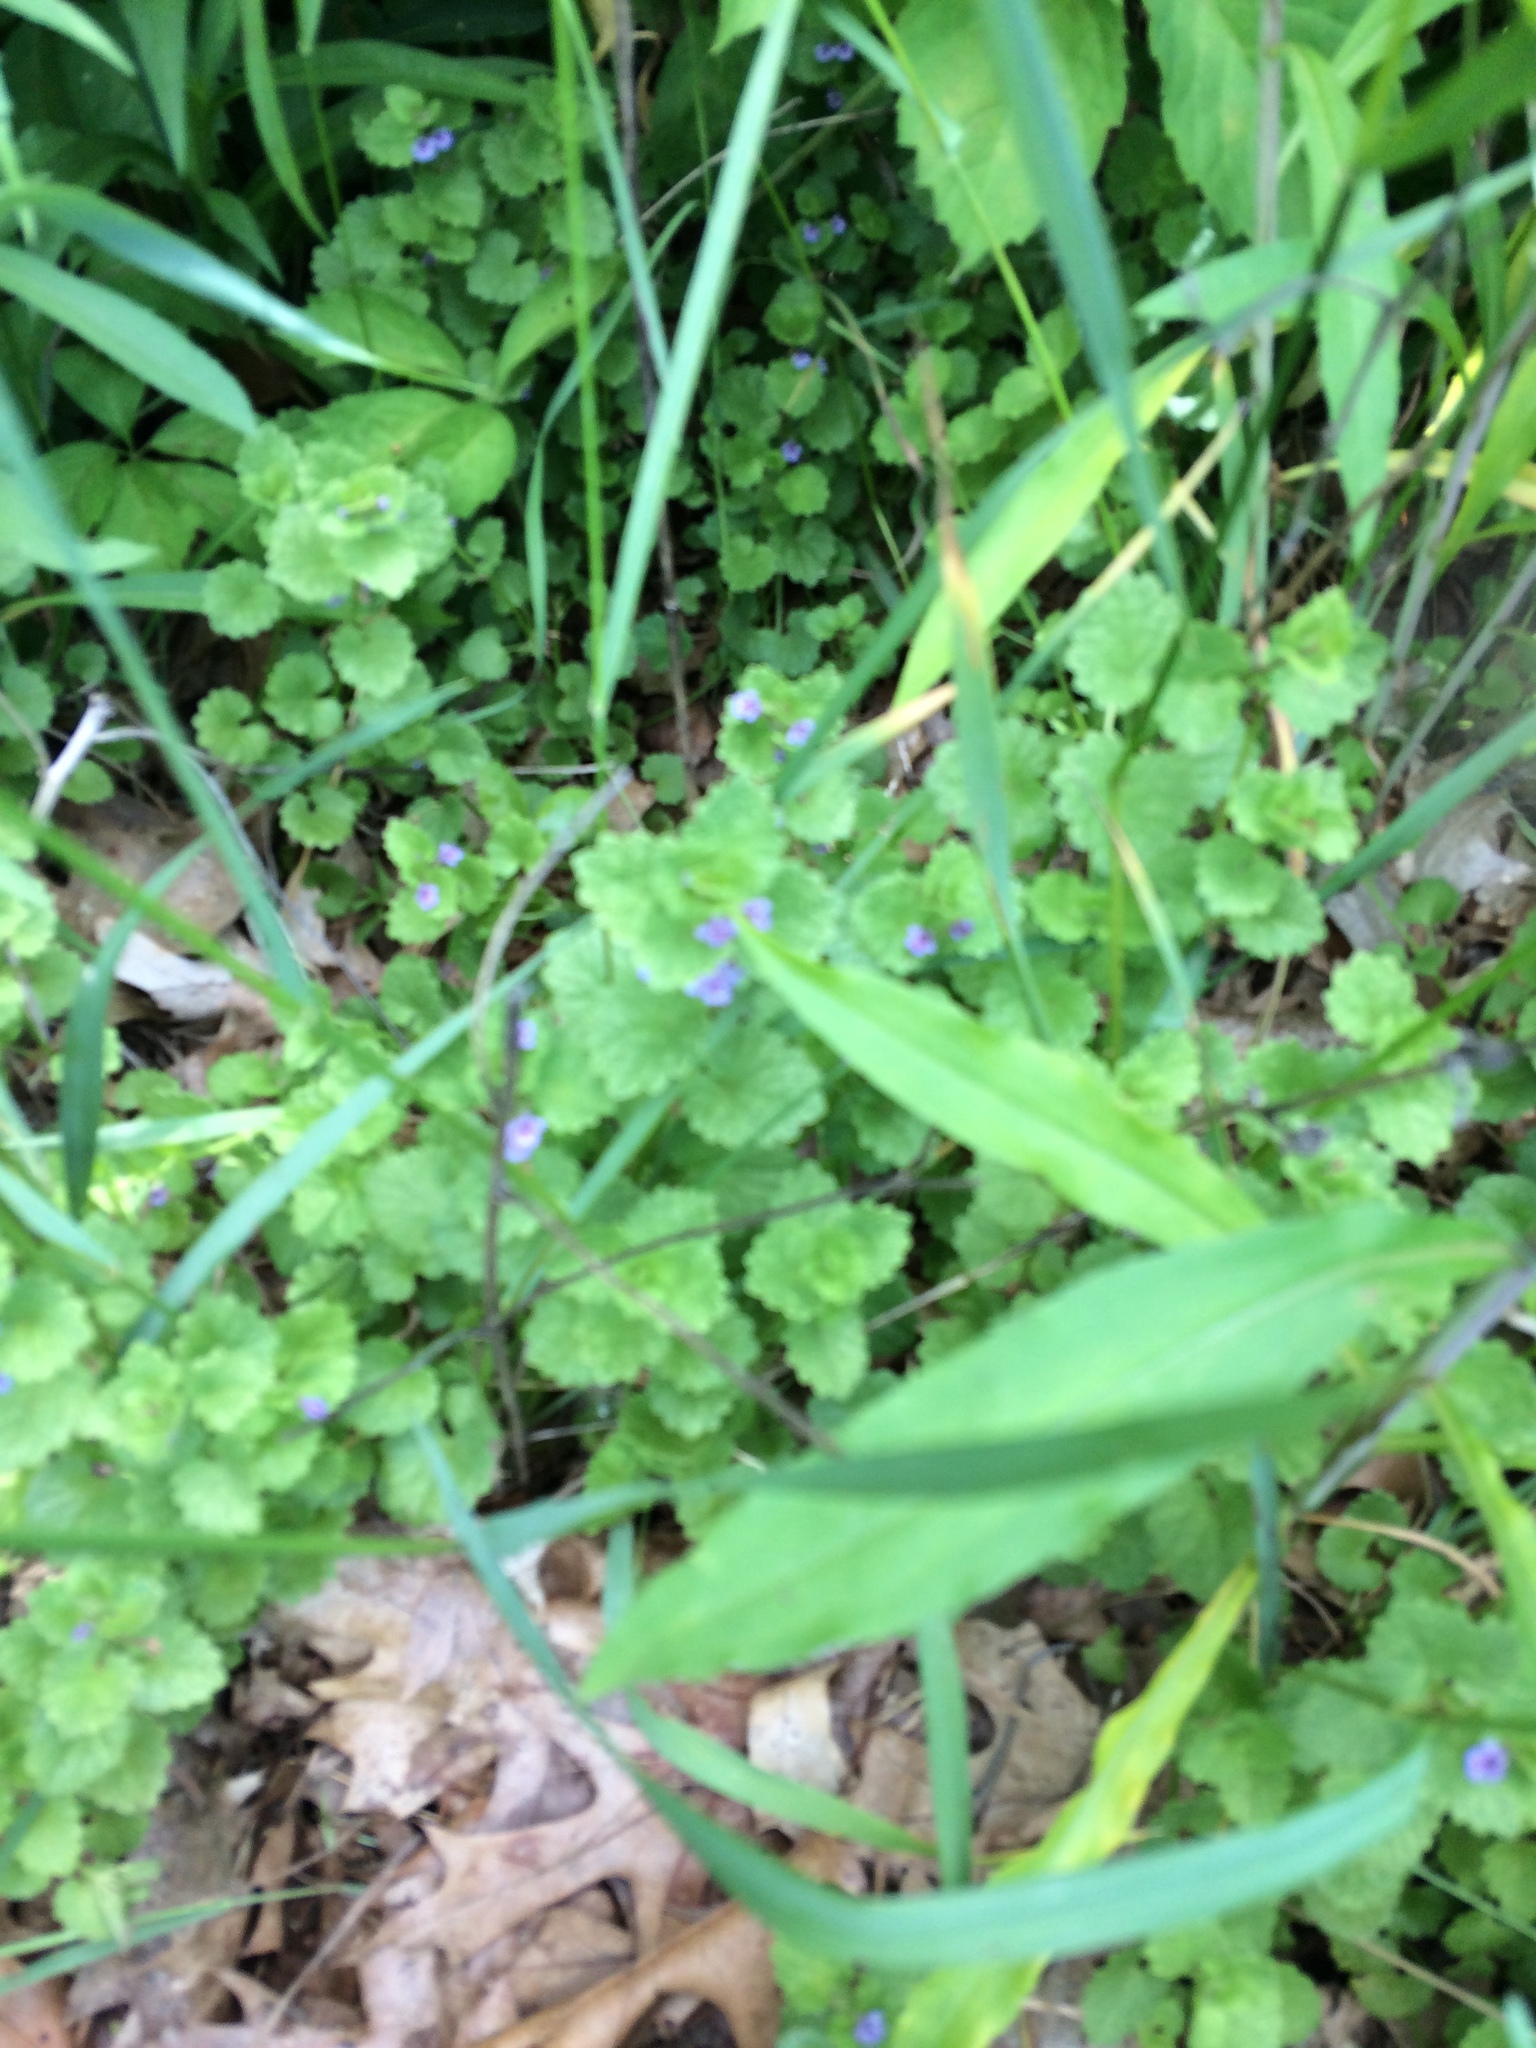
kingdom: Plantae
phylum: Tracheophyta
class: Magnoliopsida
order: Lamiales
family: Lamiaceae
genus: Glechoma
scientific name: Glechoma hederacea
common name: Ground ivy
